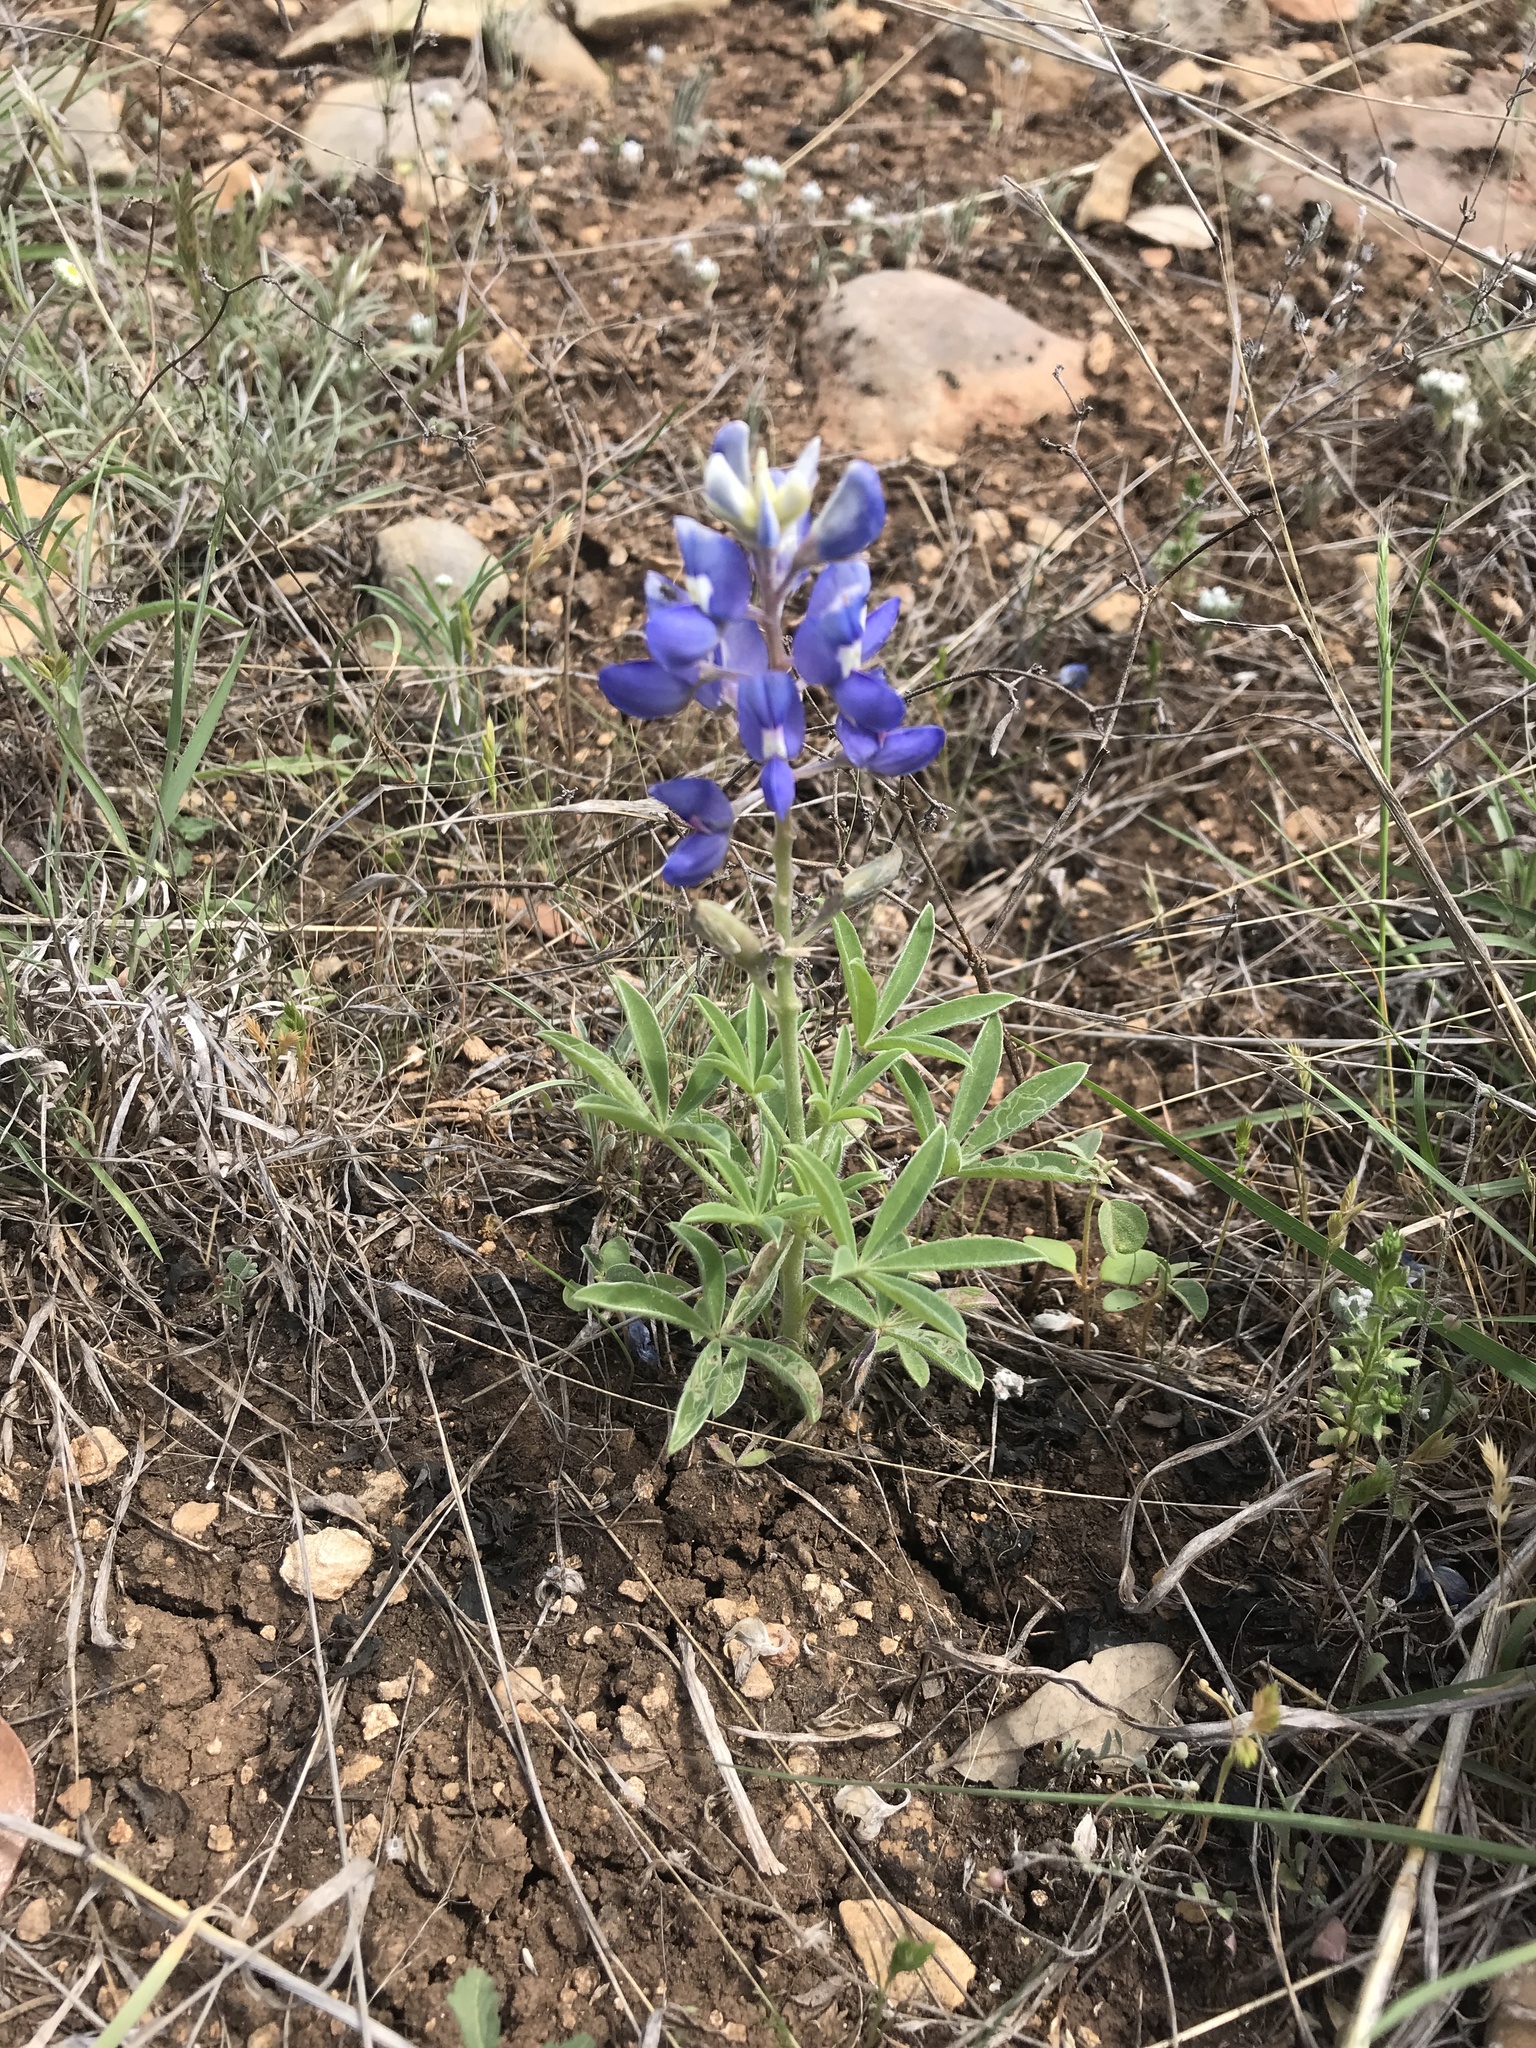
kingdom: Plantae
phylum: Tracheophyta
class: Magnoliopsida
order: Fabales
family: Fabaceae
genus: Lupinus
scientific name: Lupinus texensis
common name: Texas bluebonnet
